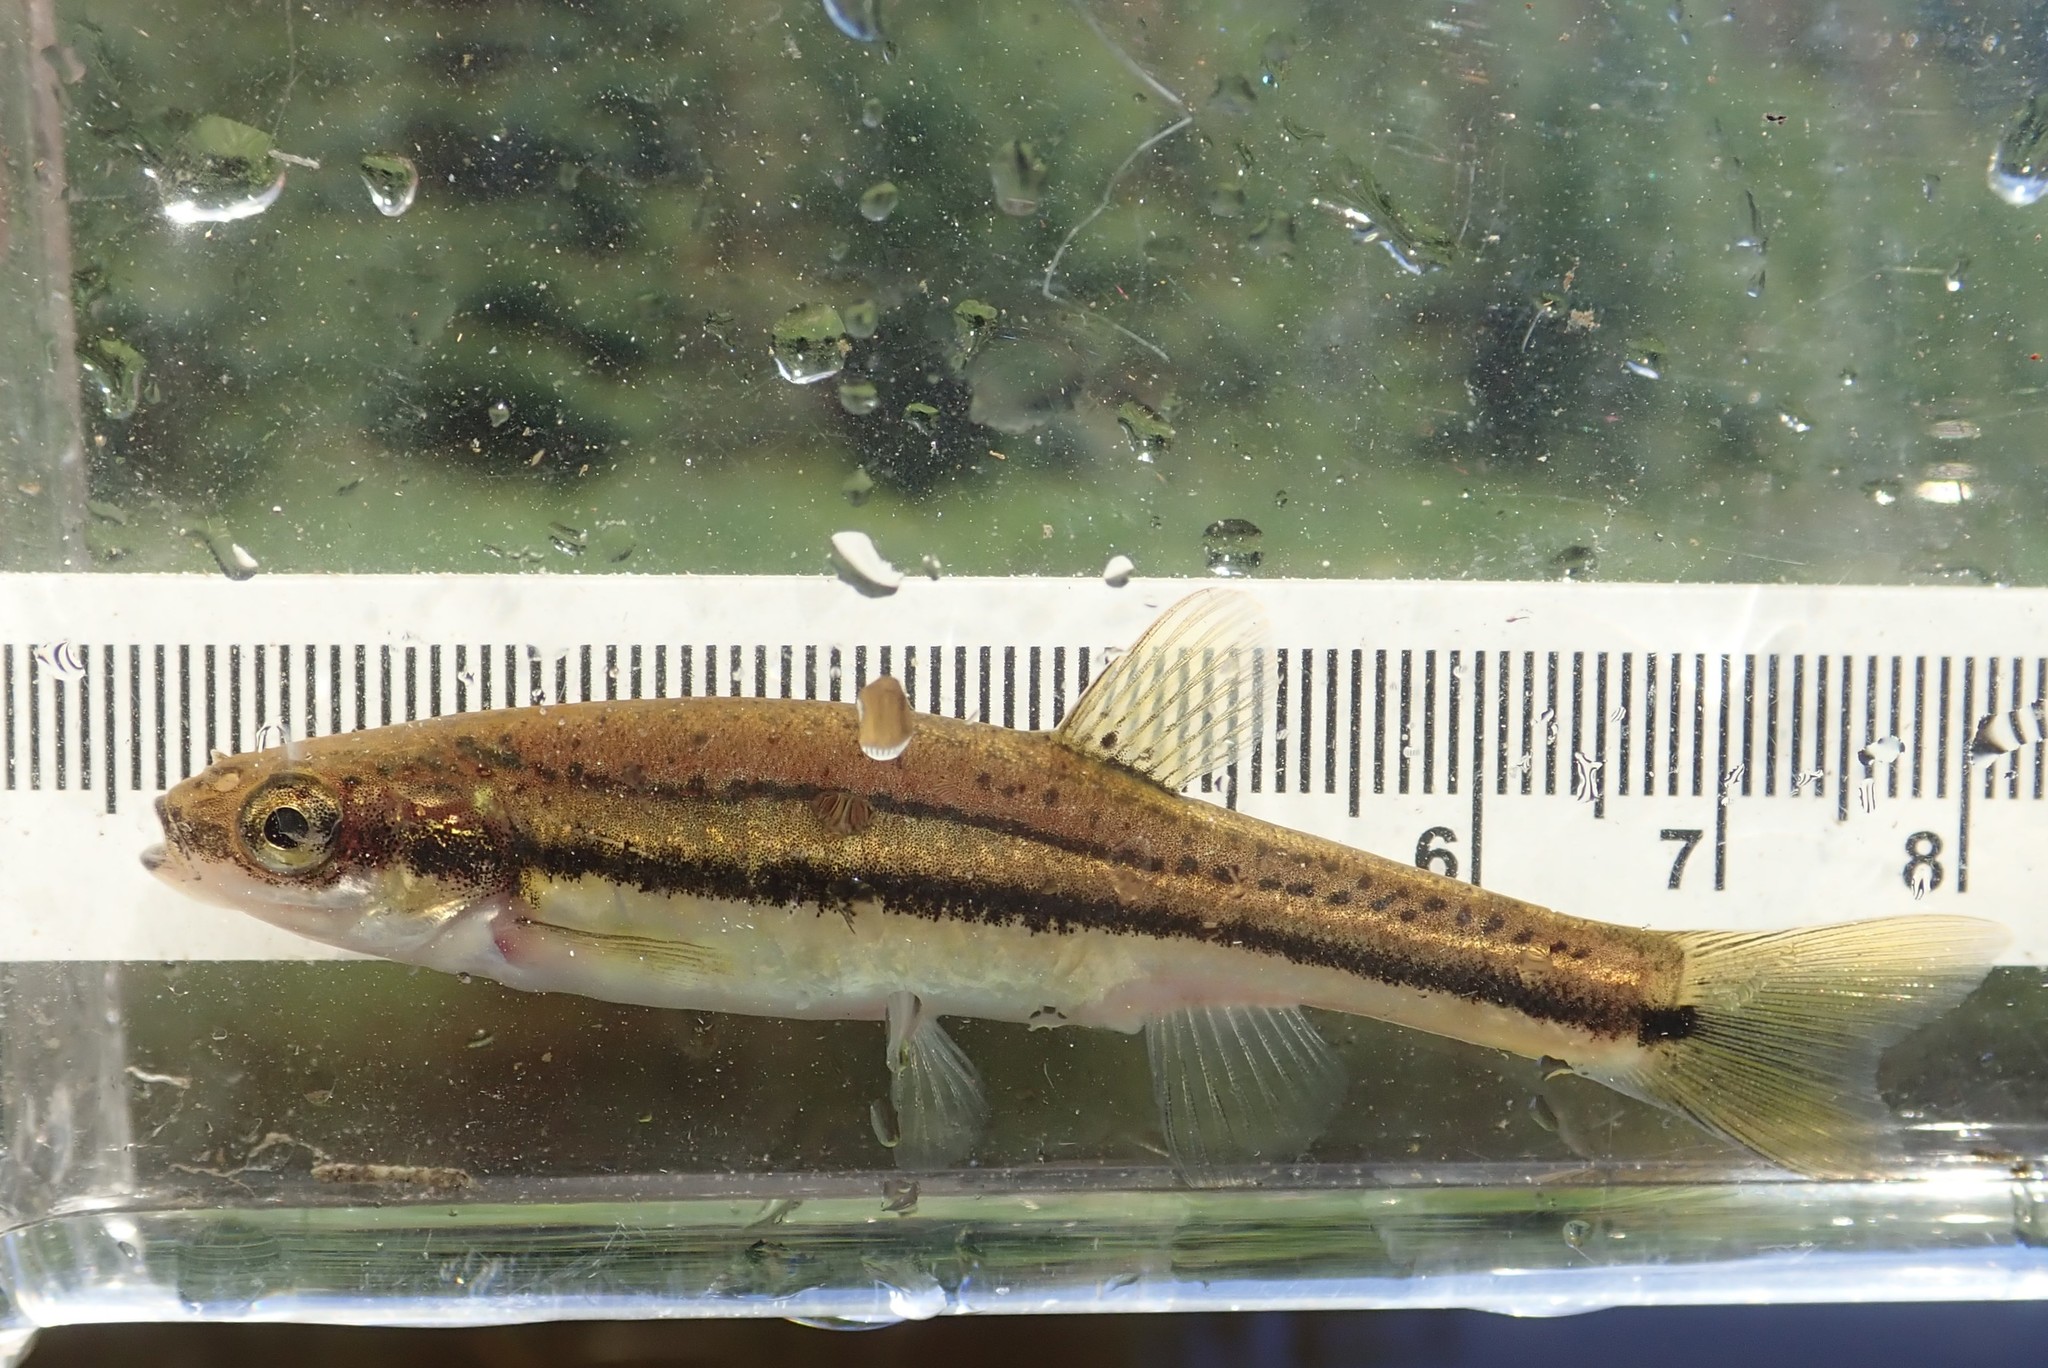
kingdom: Animalia
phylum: Chordata
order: Cypriniformes
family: Cyprinidae
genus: Chrosomus
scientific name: Chrosomus eos
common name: Northern redbelly dace
